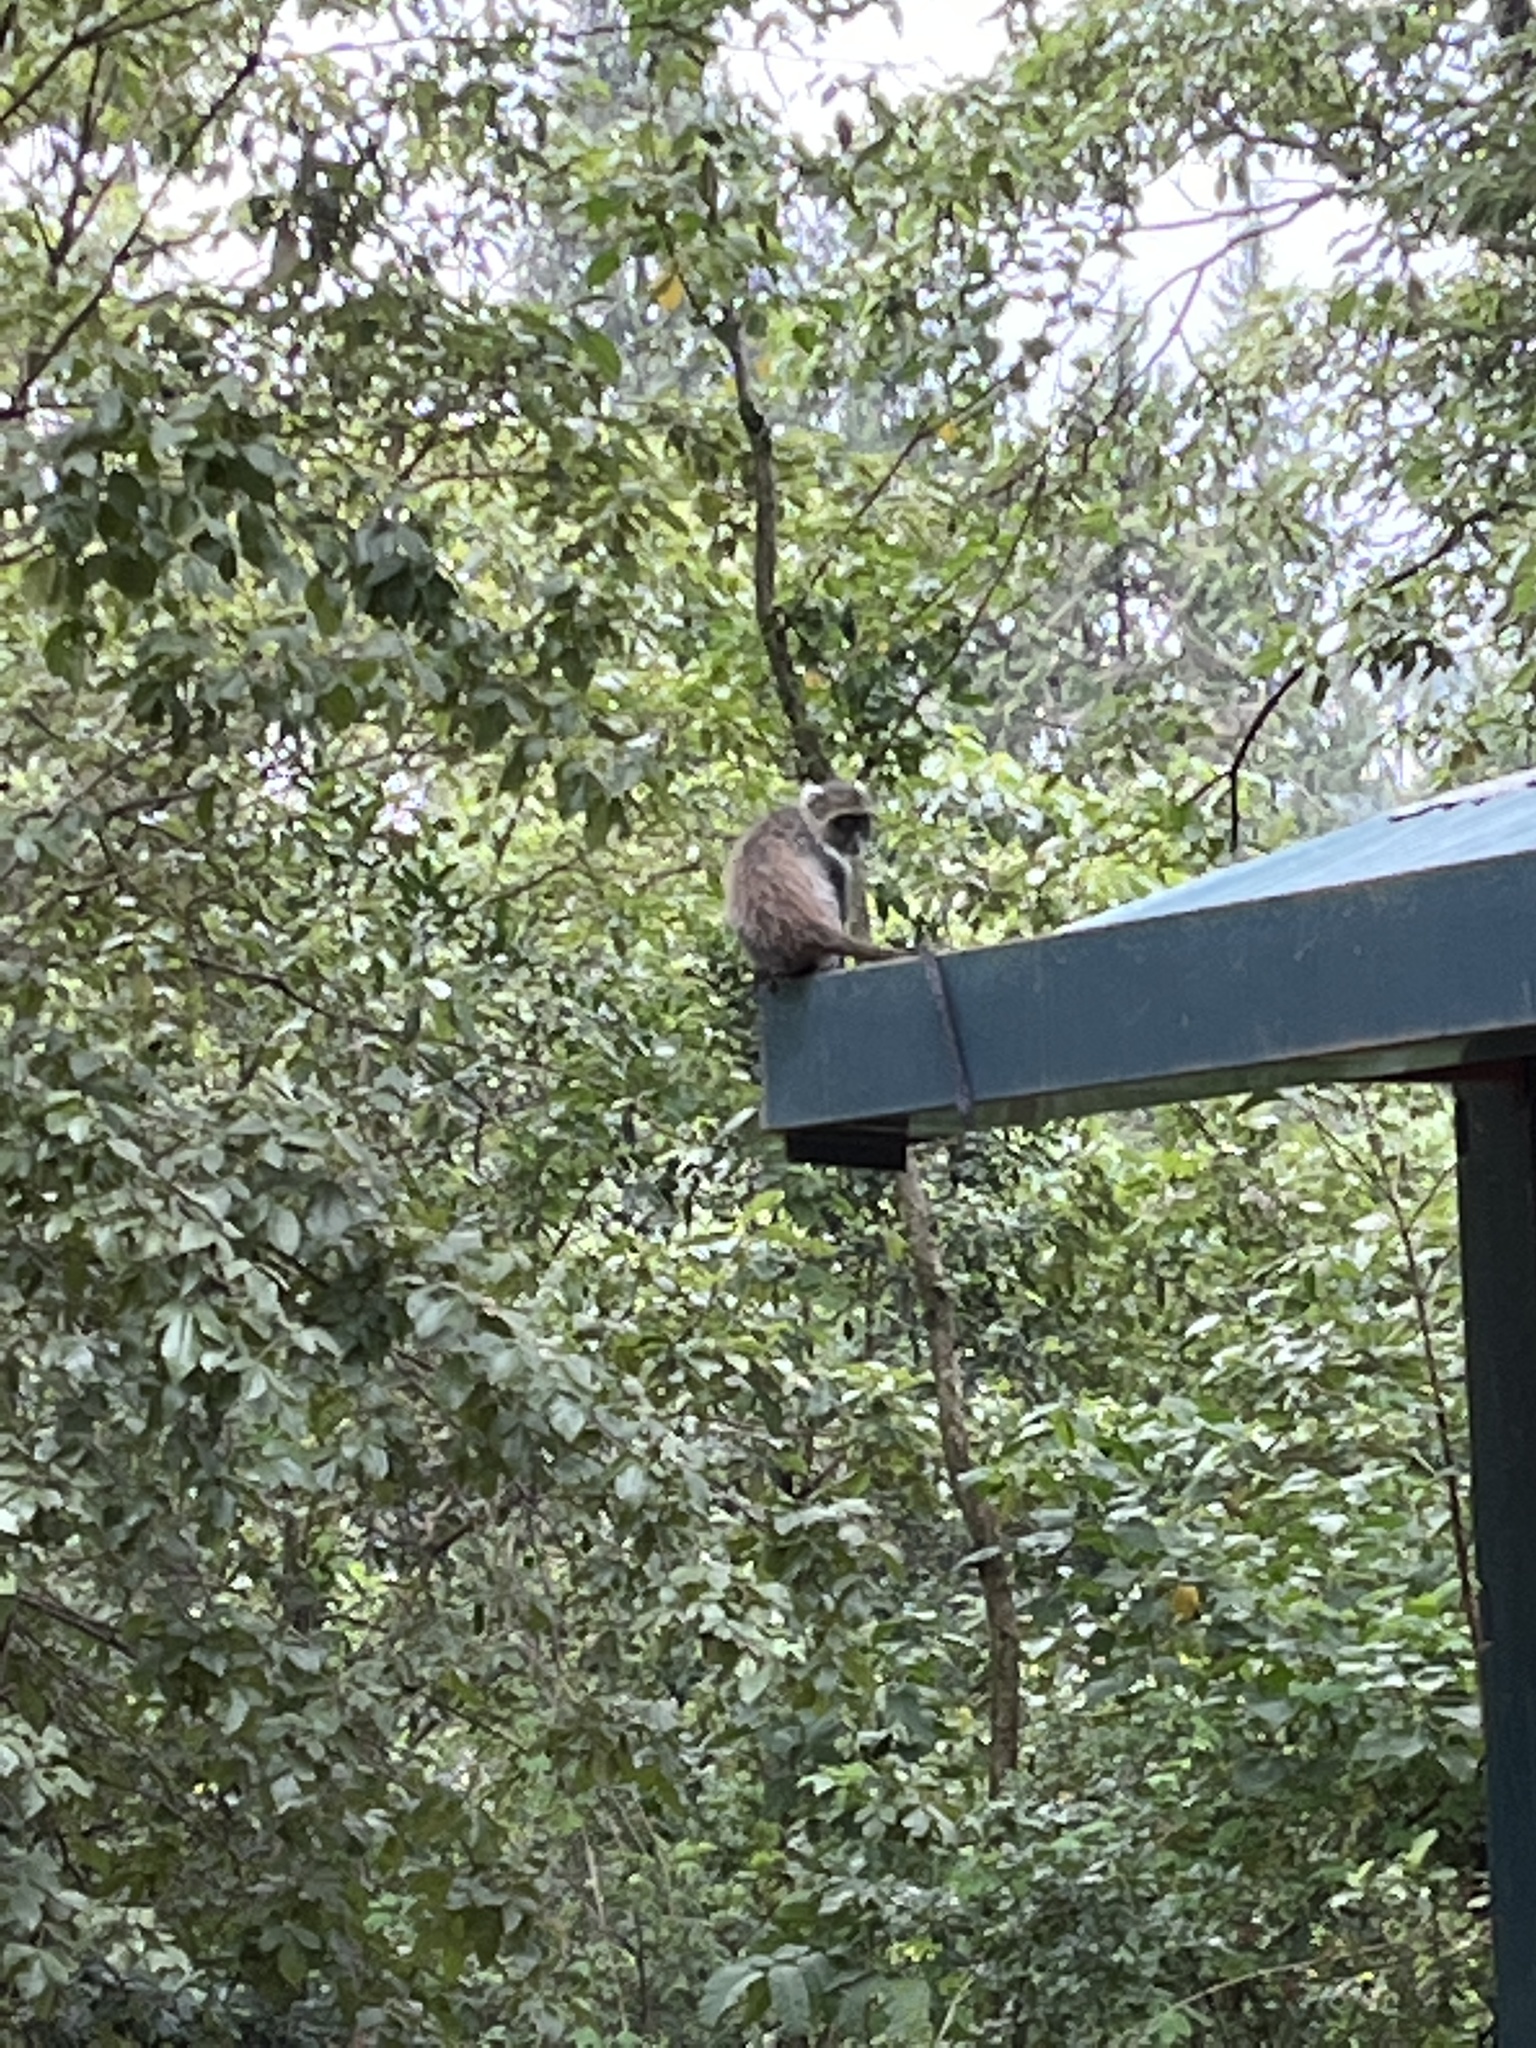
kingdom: Animalia
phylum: Chordata
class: Mammalia
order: Primates
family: Cercopithecidae
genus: Cercopithecus
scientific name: Cercopithecus mitis
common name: Blue monkey
